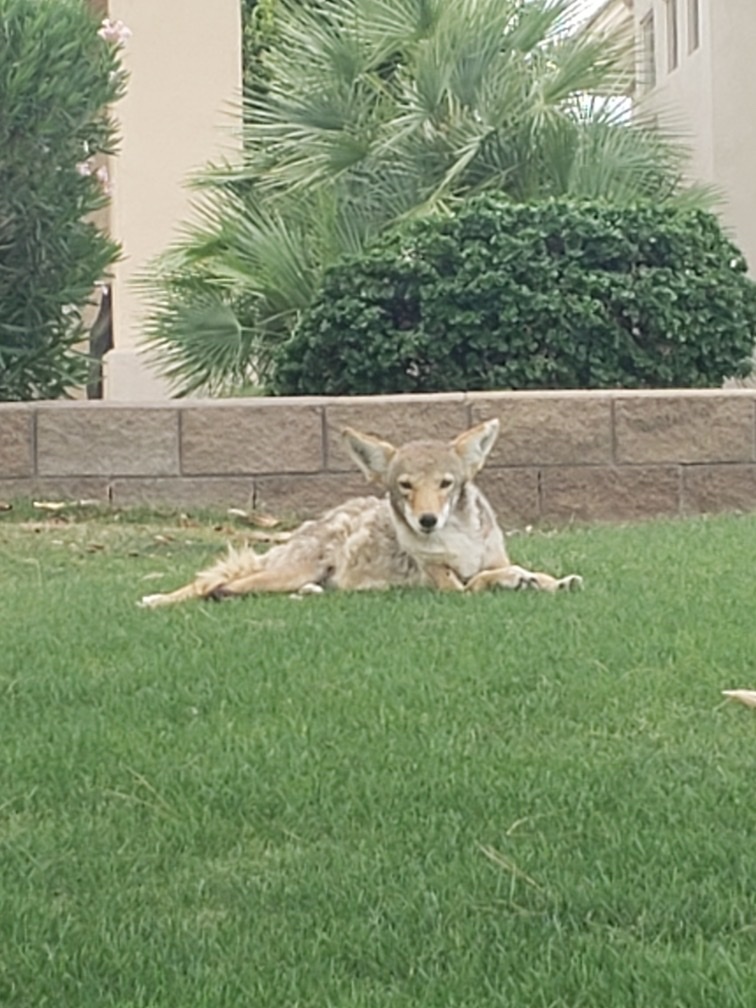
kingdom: Animalia
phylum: Chordata
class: Mammalia
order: Carnivora
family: Canidae
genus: Canis
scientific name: Canis latrans
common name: Coyote
